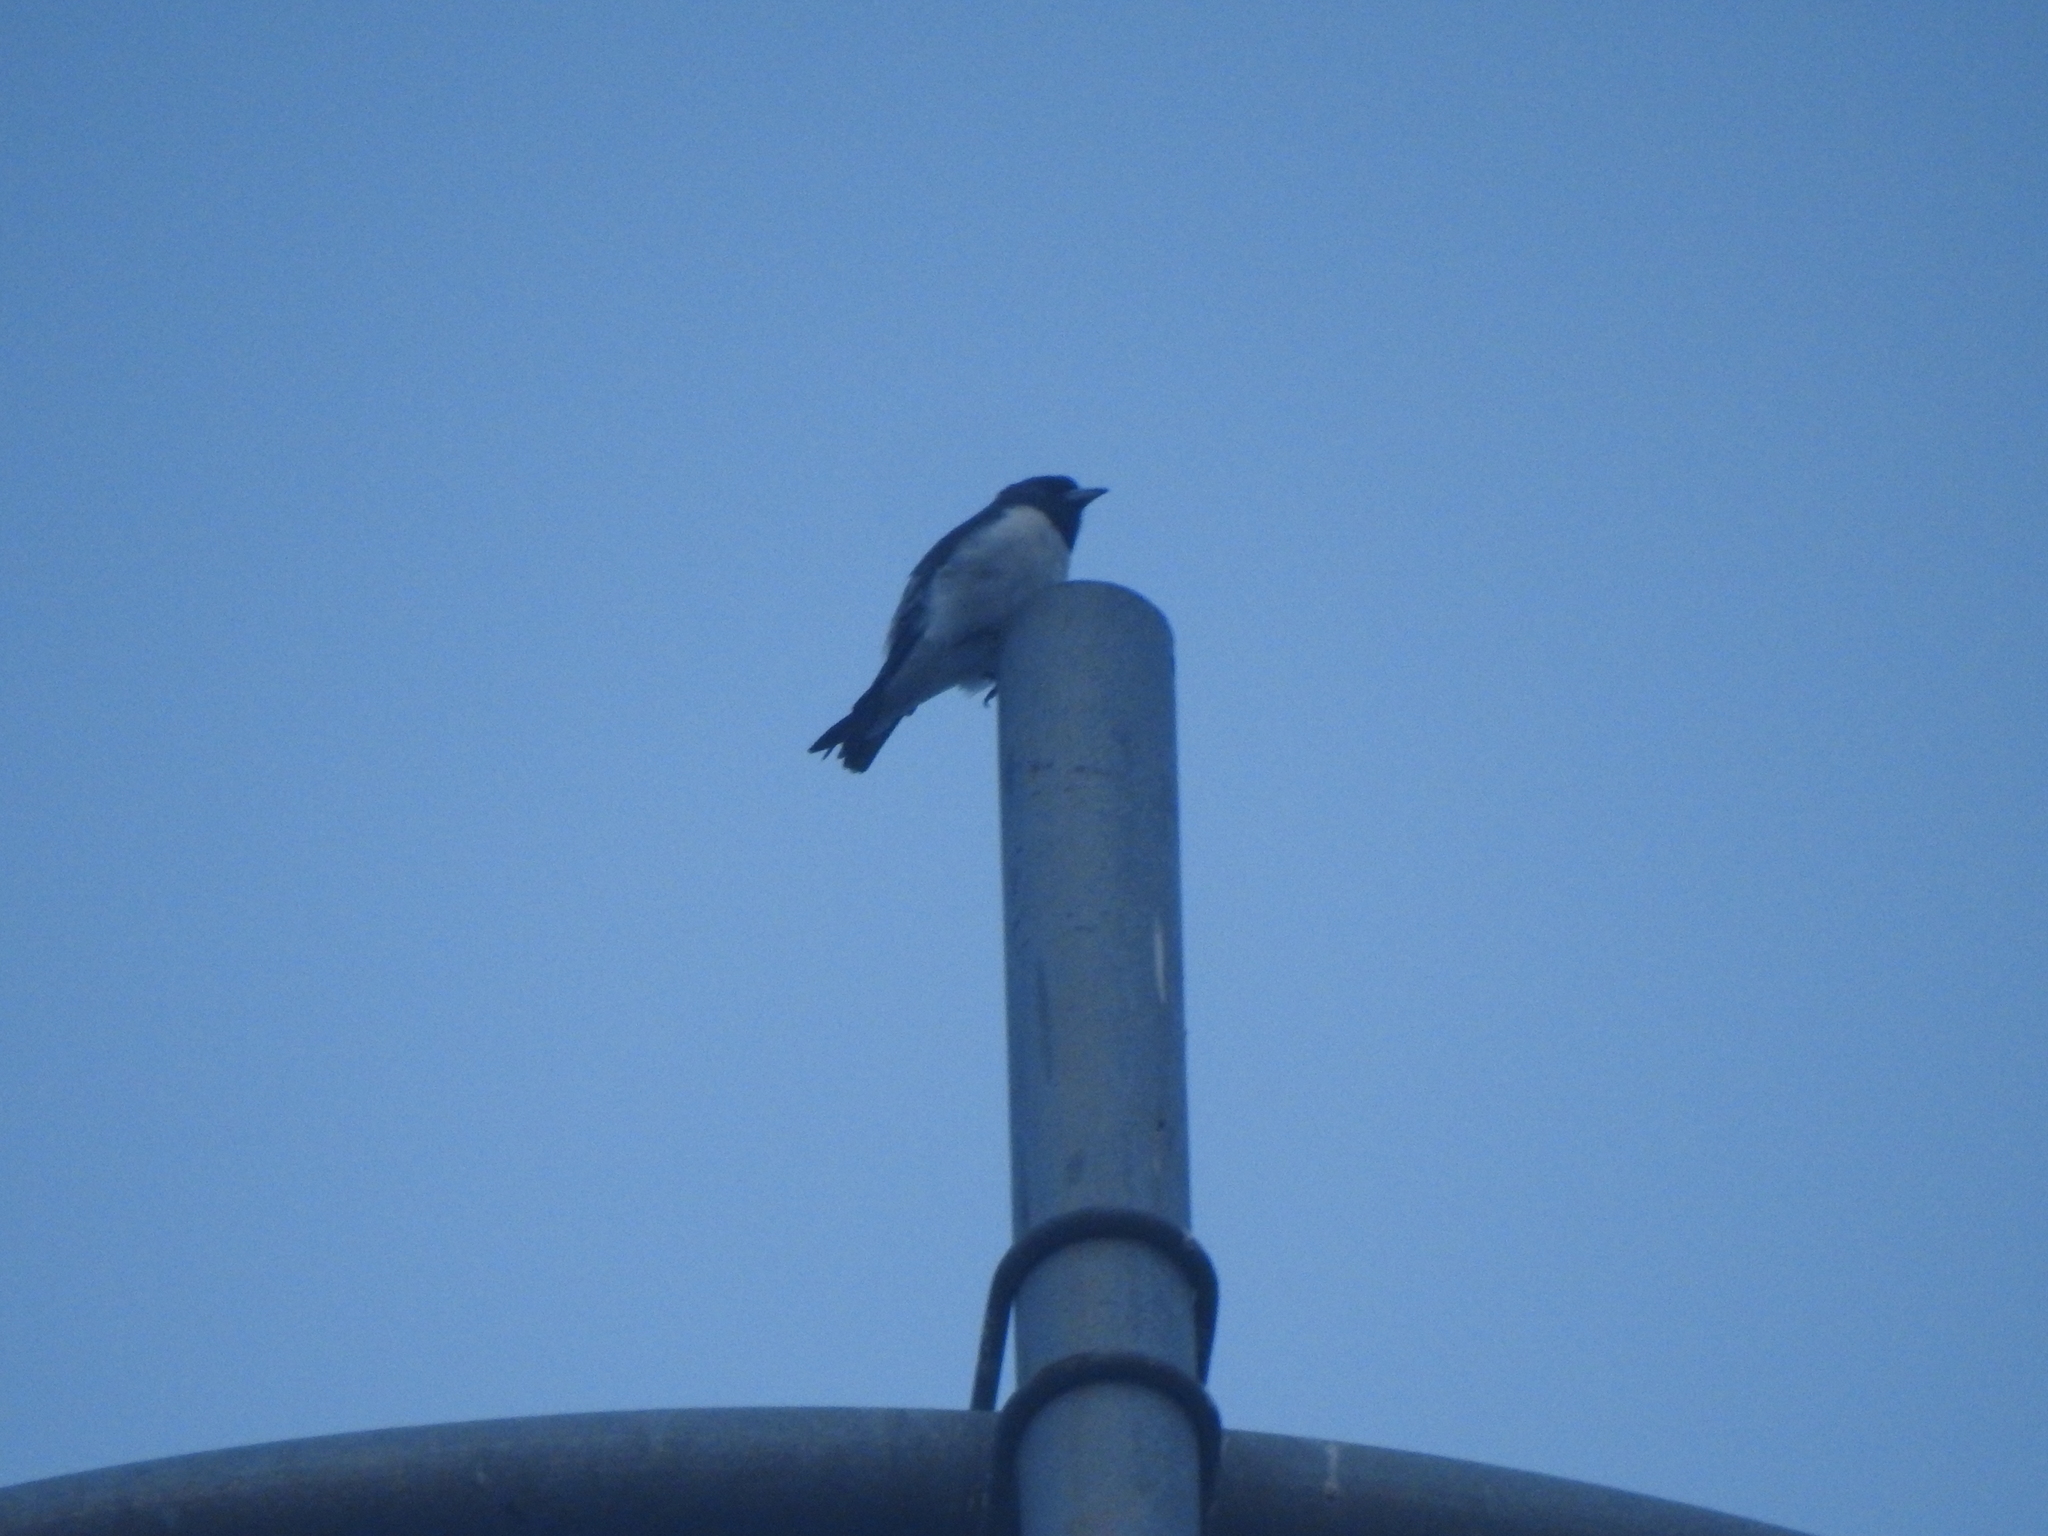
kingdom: Animalia
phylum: Chordata
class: Aves
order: Passeriformes
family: Artamidae
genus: Artamus
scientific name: Artamus leucoryn
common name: White-breasted woodswallow
